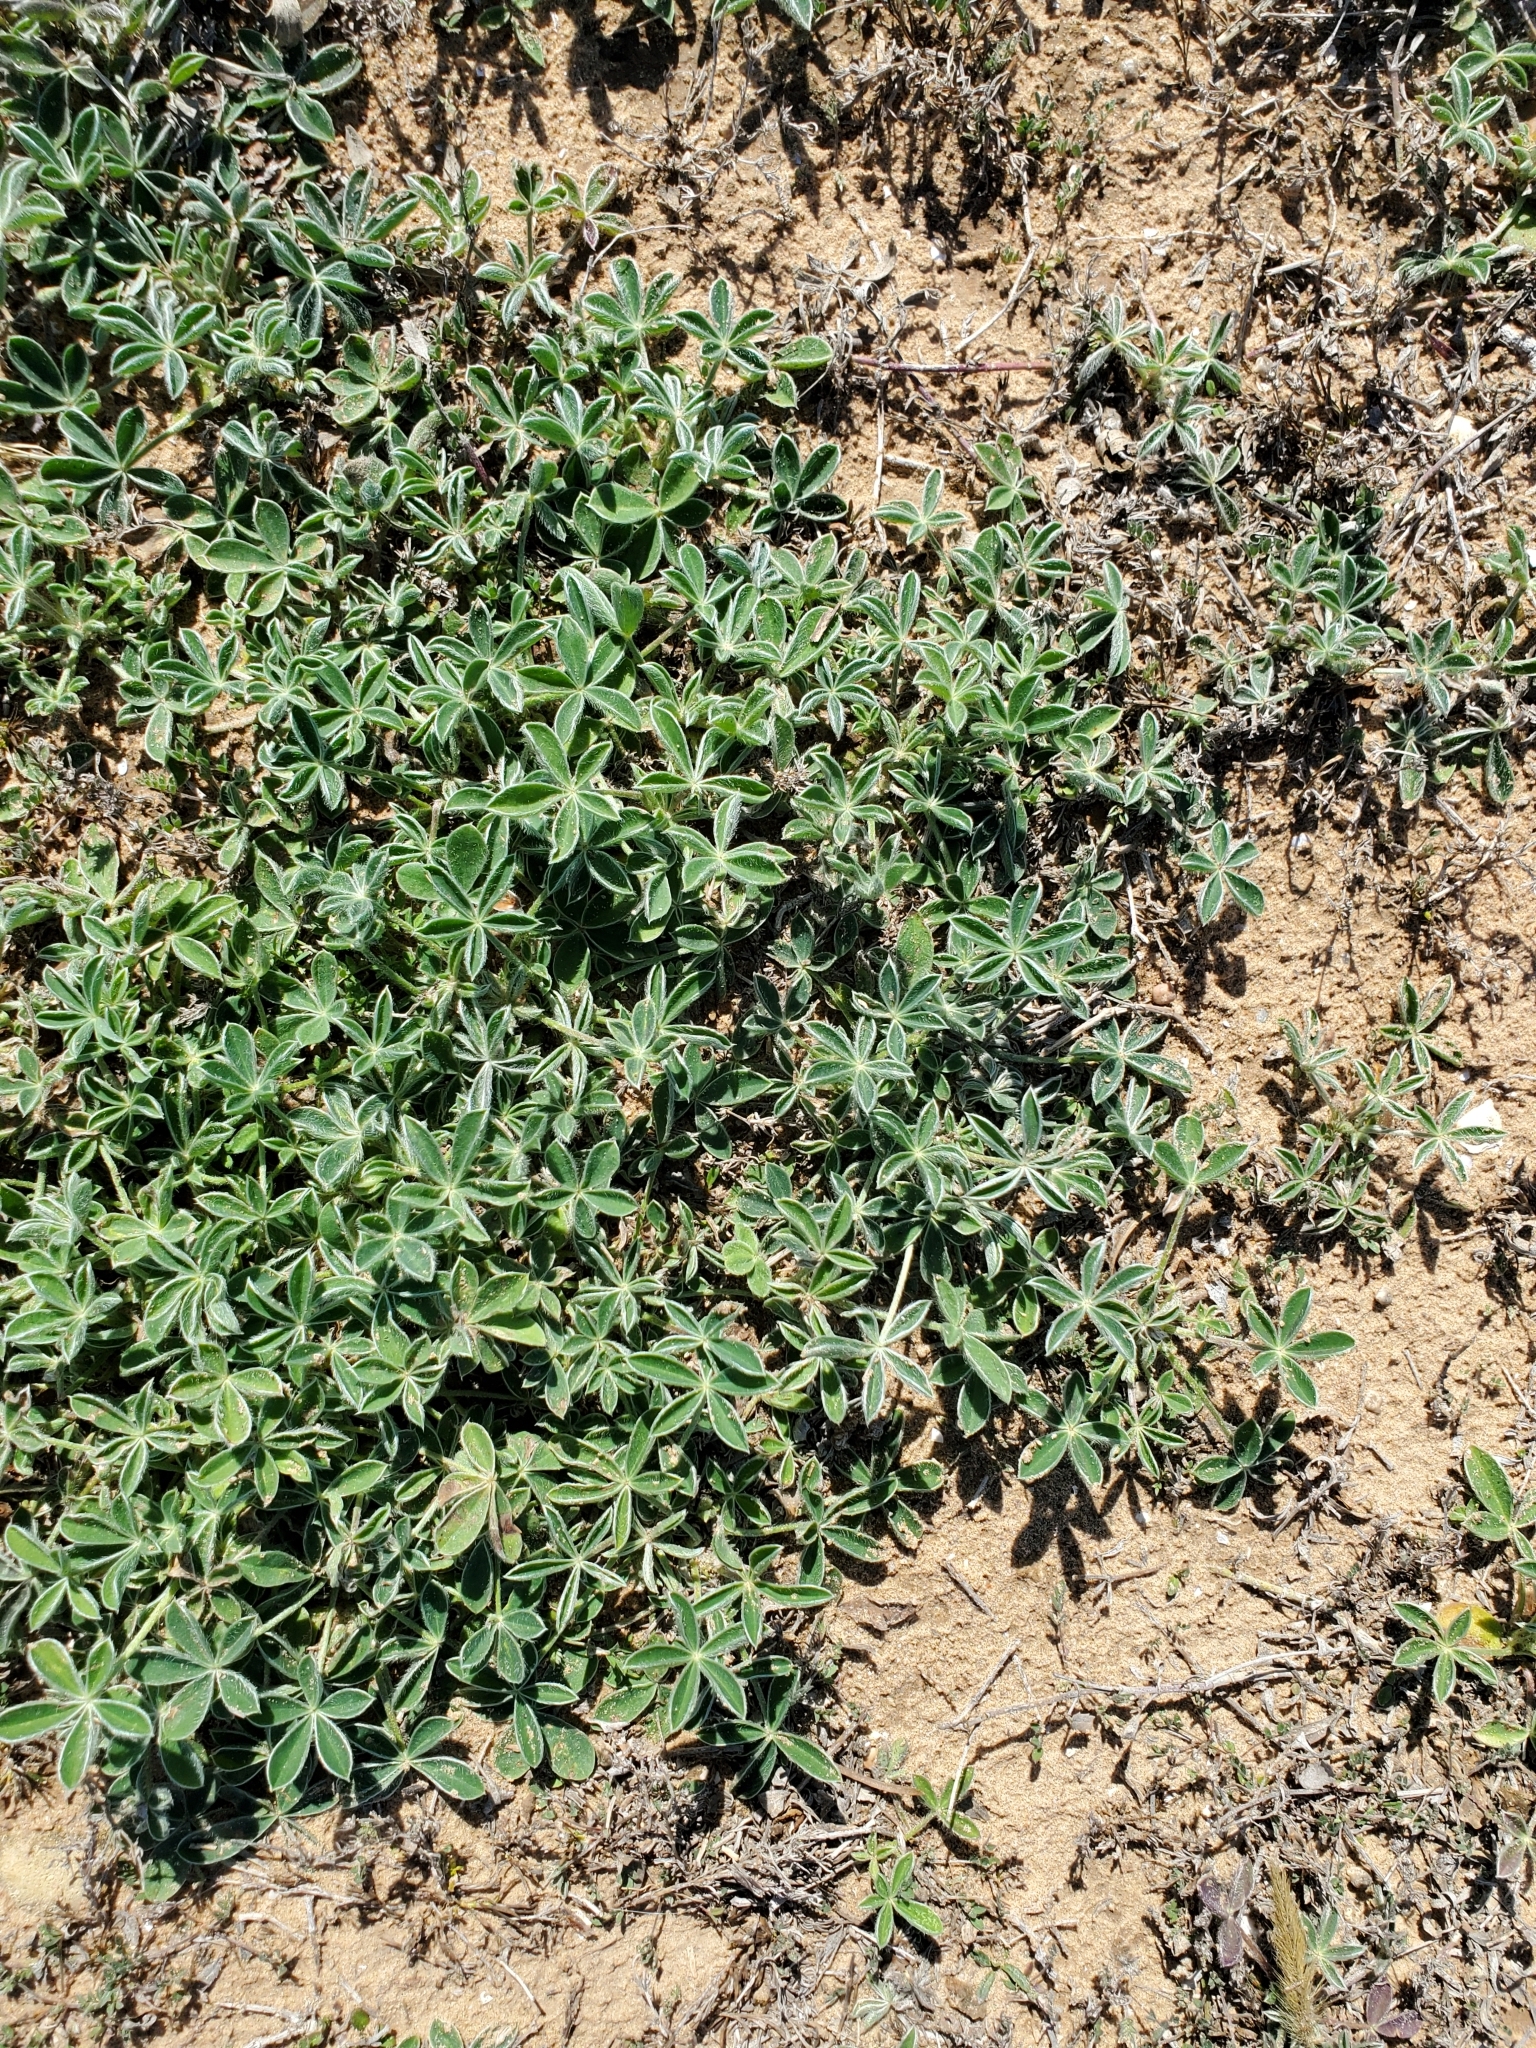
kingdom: Plantae
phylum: Tracheophyta
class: Magnoliopsida
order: Fabales
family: Fabaceae
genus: Lupinus
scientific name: Lupinus texensis
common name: Texas bluebonnet
